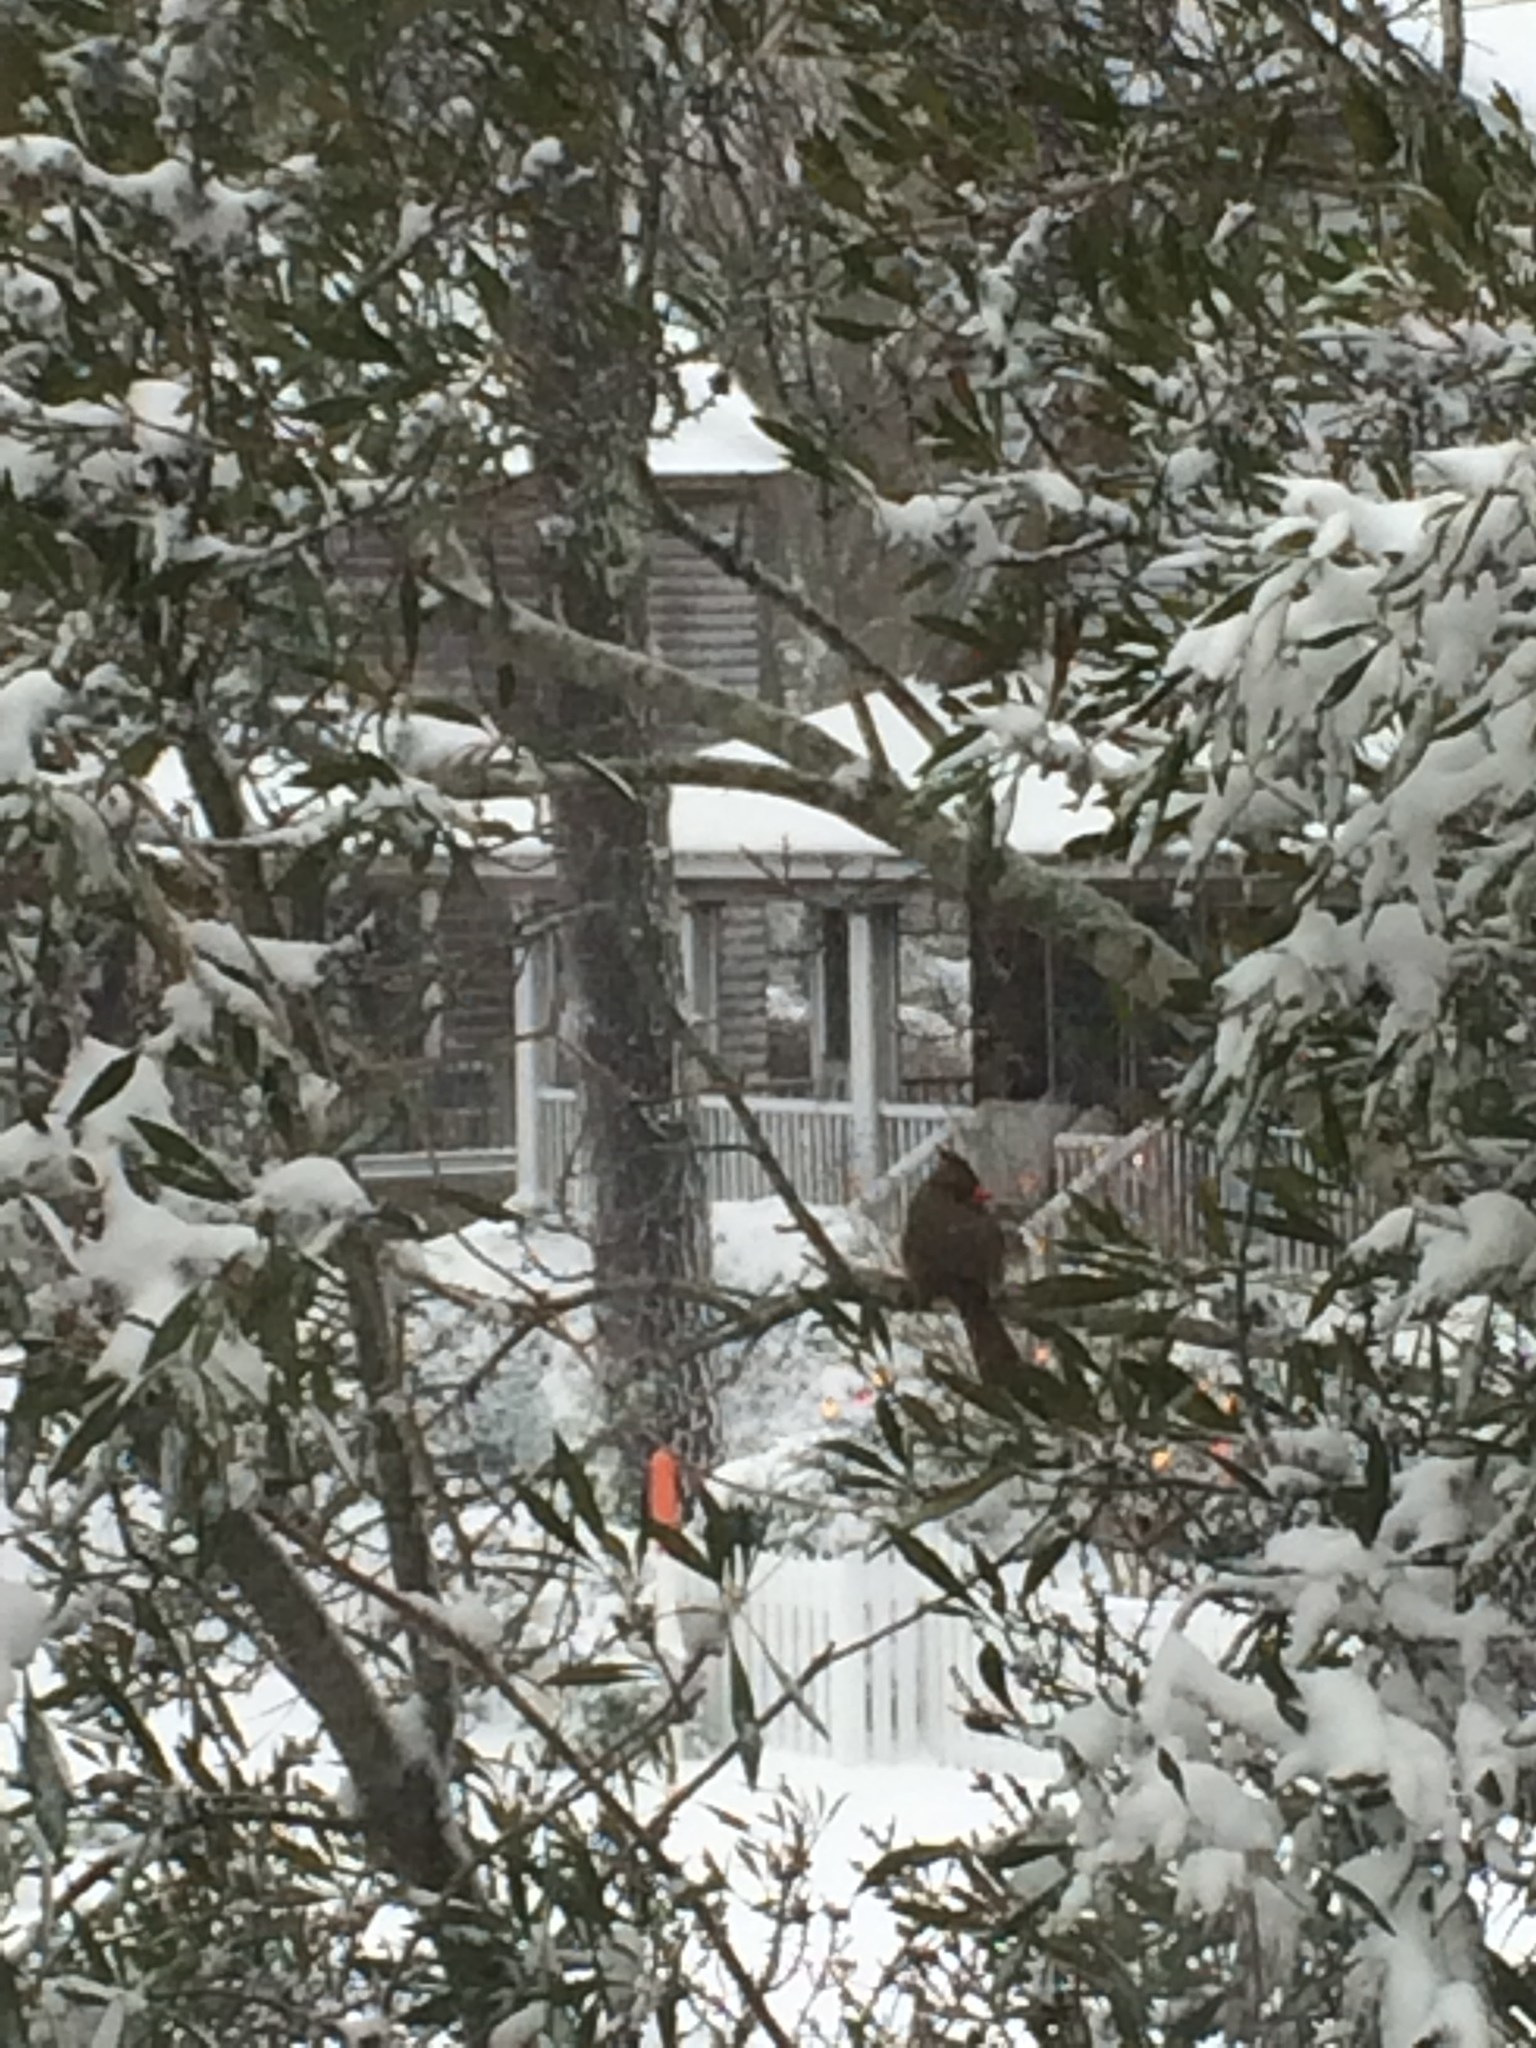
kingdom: Animalia
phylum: Chordata
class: Aves
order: Passeriformes
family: Cardinalidae
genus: Cardinalis
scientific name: Cardinalis cardinalis
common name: Northern cardinal
